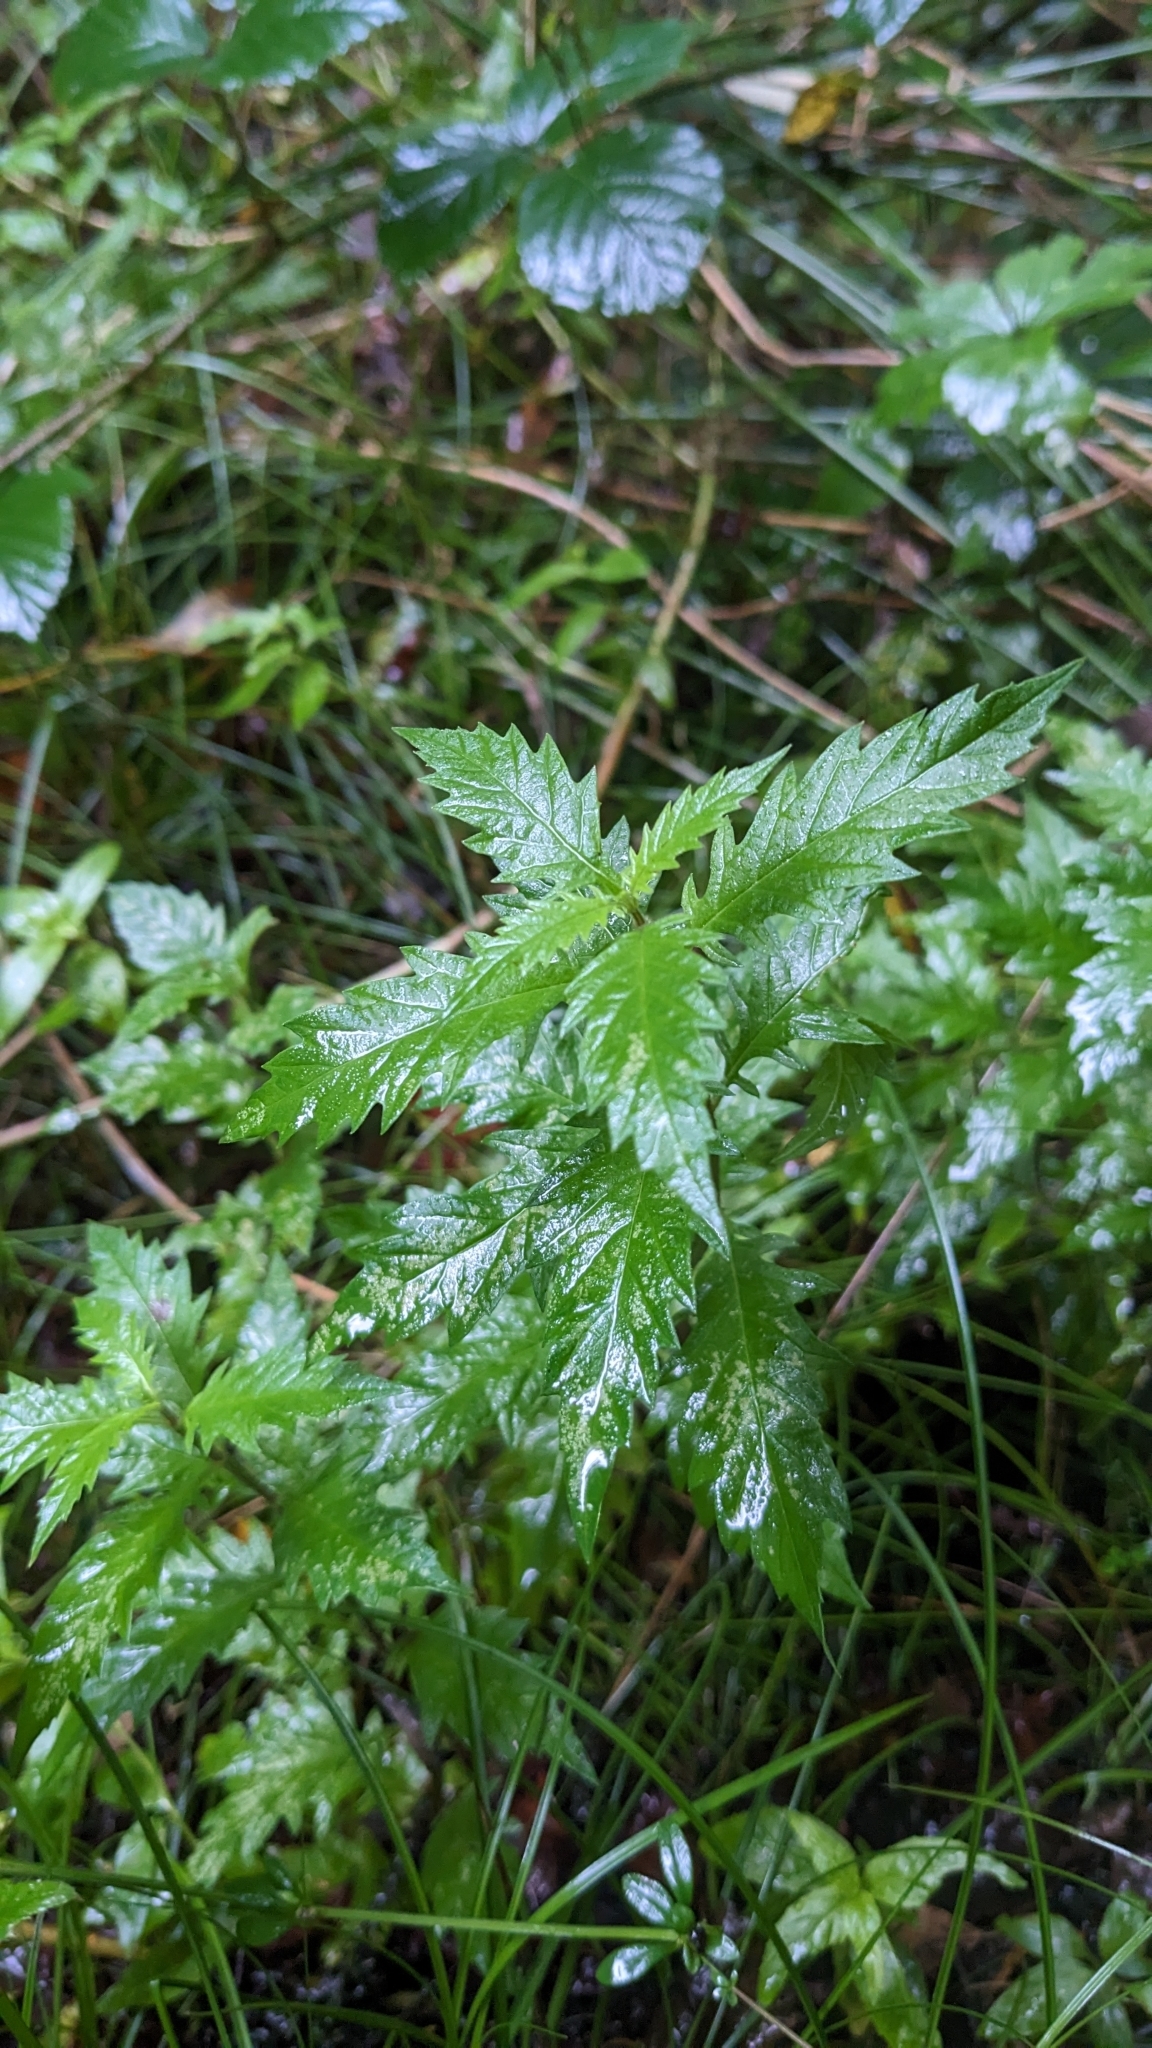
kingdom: Plantae
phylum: Tracheophyta
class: Magnoliopsida
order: Lamiales
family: Lamiaceae
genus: Lycopus
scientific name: Lycopus europaeus
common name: European bugleweed
